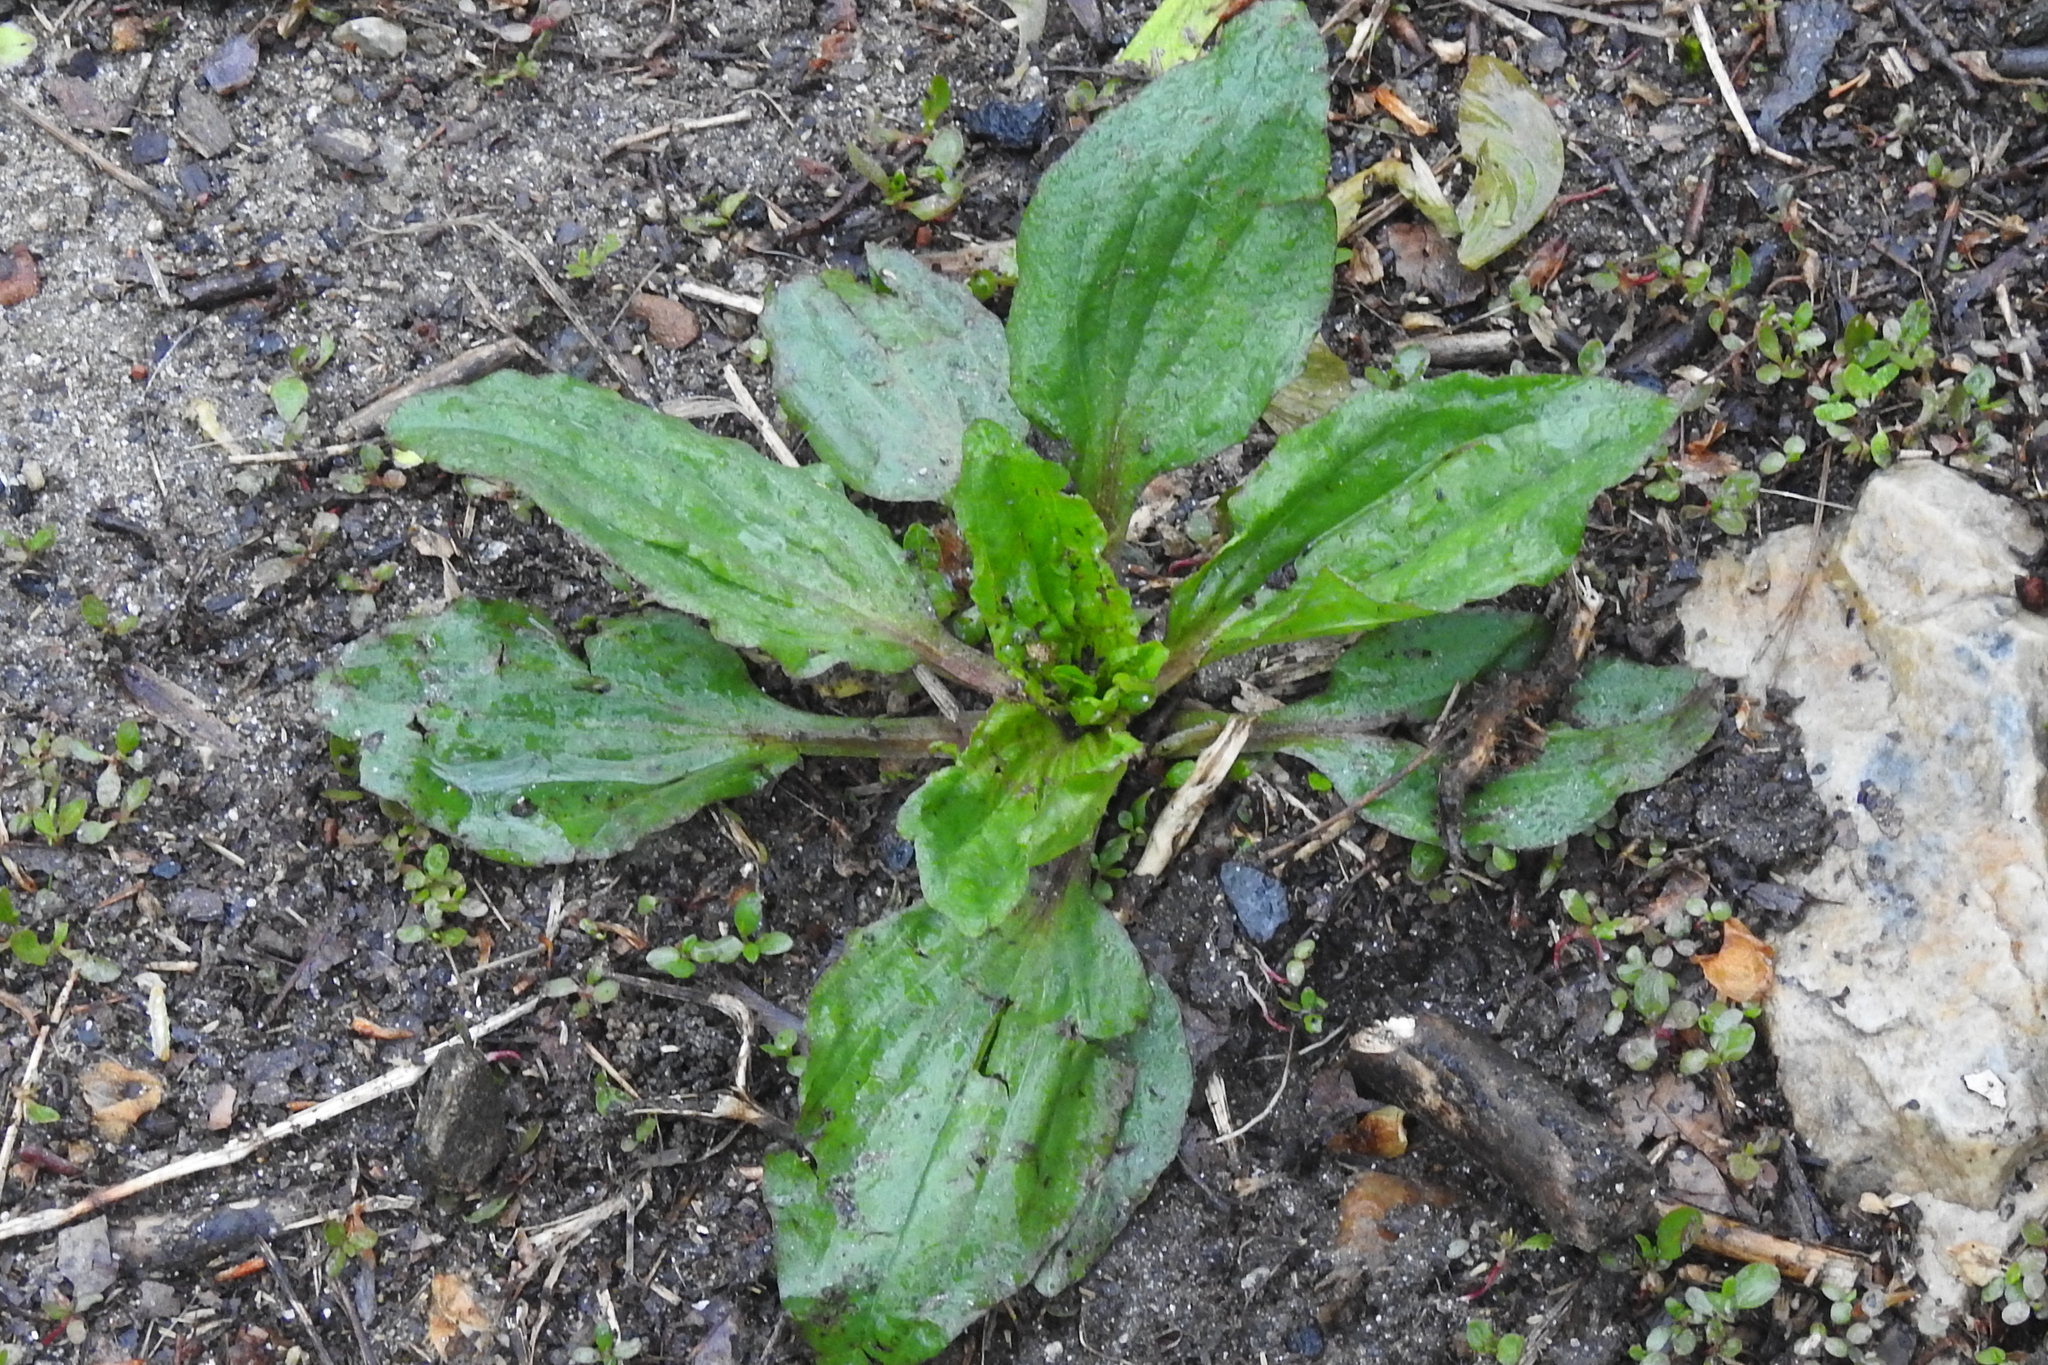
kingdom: Plantae
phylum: Tracheophyta
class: Magnoliopsida
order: Lamiales
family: Plantaginaceae
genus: Plantago
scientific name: Plantago rugelii
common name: American plantain
